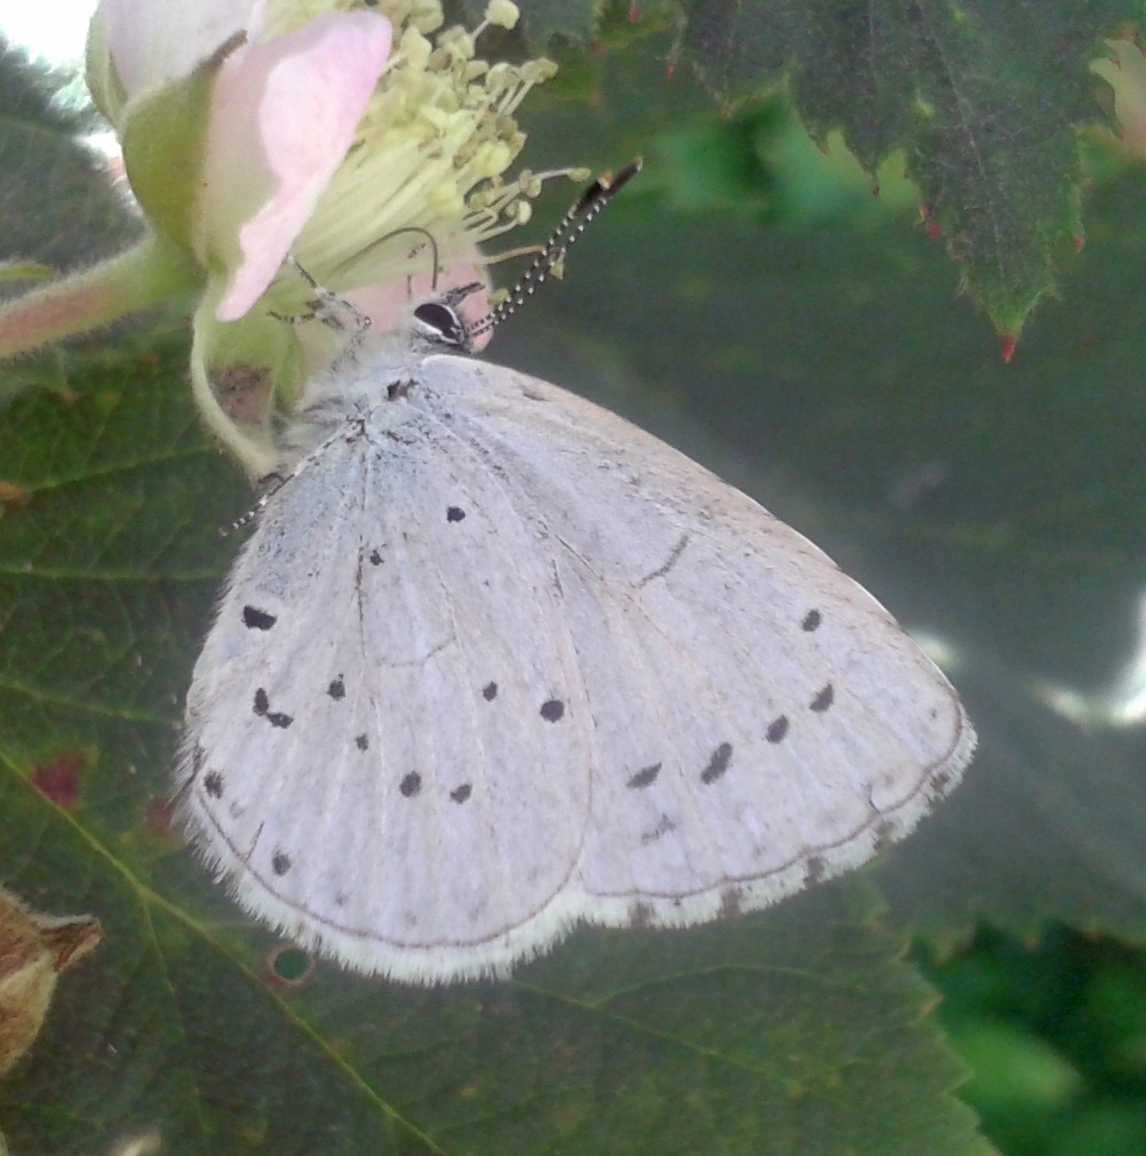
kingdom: Animalia
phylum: Arthropoda
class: Insecta
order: Lepidoptera
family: Lycaenidae
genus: Celastrina
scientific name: Celastrina argiolus
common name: Holly blue
